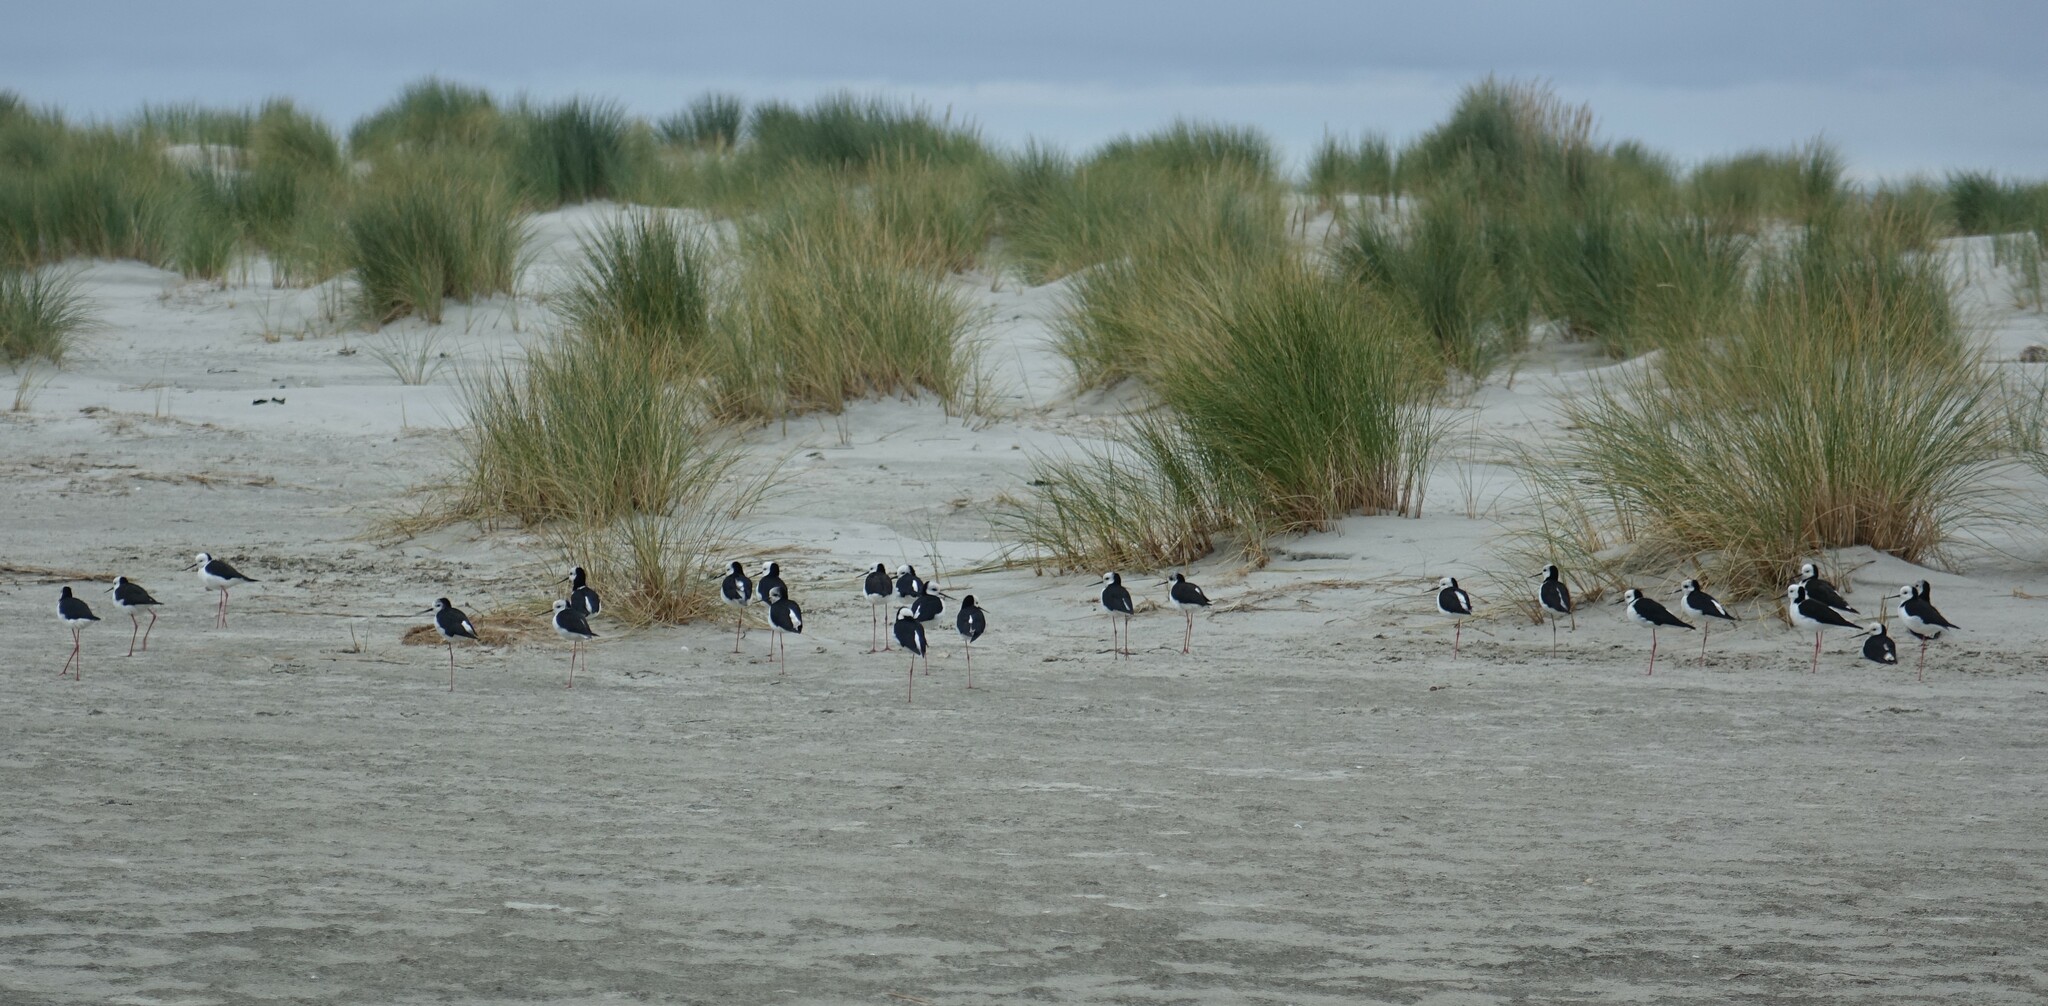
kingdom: Animalia
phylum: Chordata
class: Aves
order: Charadriiformes
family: Recurvirostridae
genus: Himantopus
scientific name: Himantopus leucocephalus
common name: White-headed stilt
